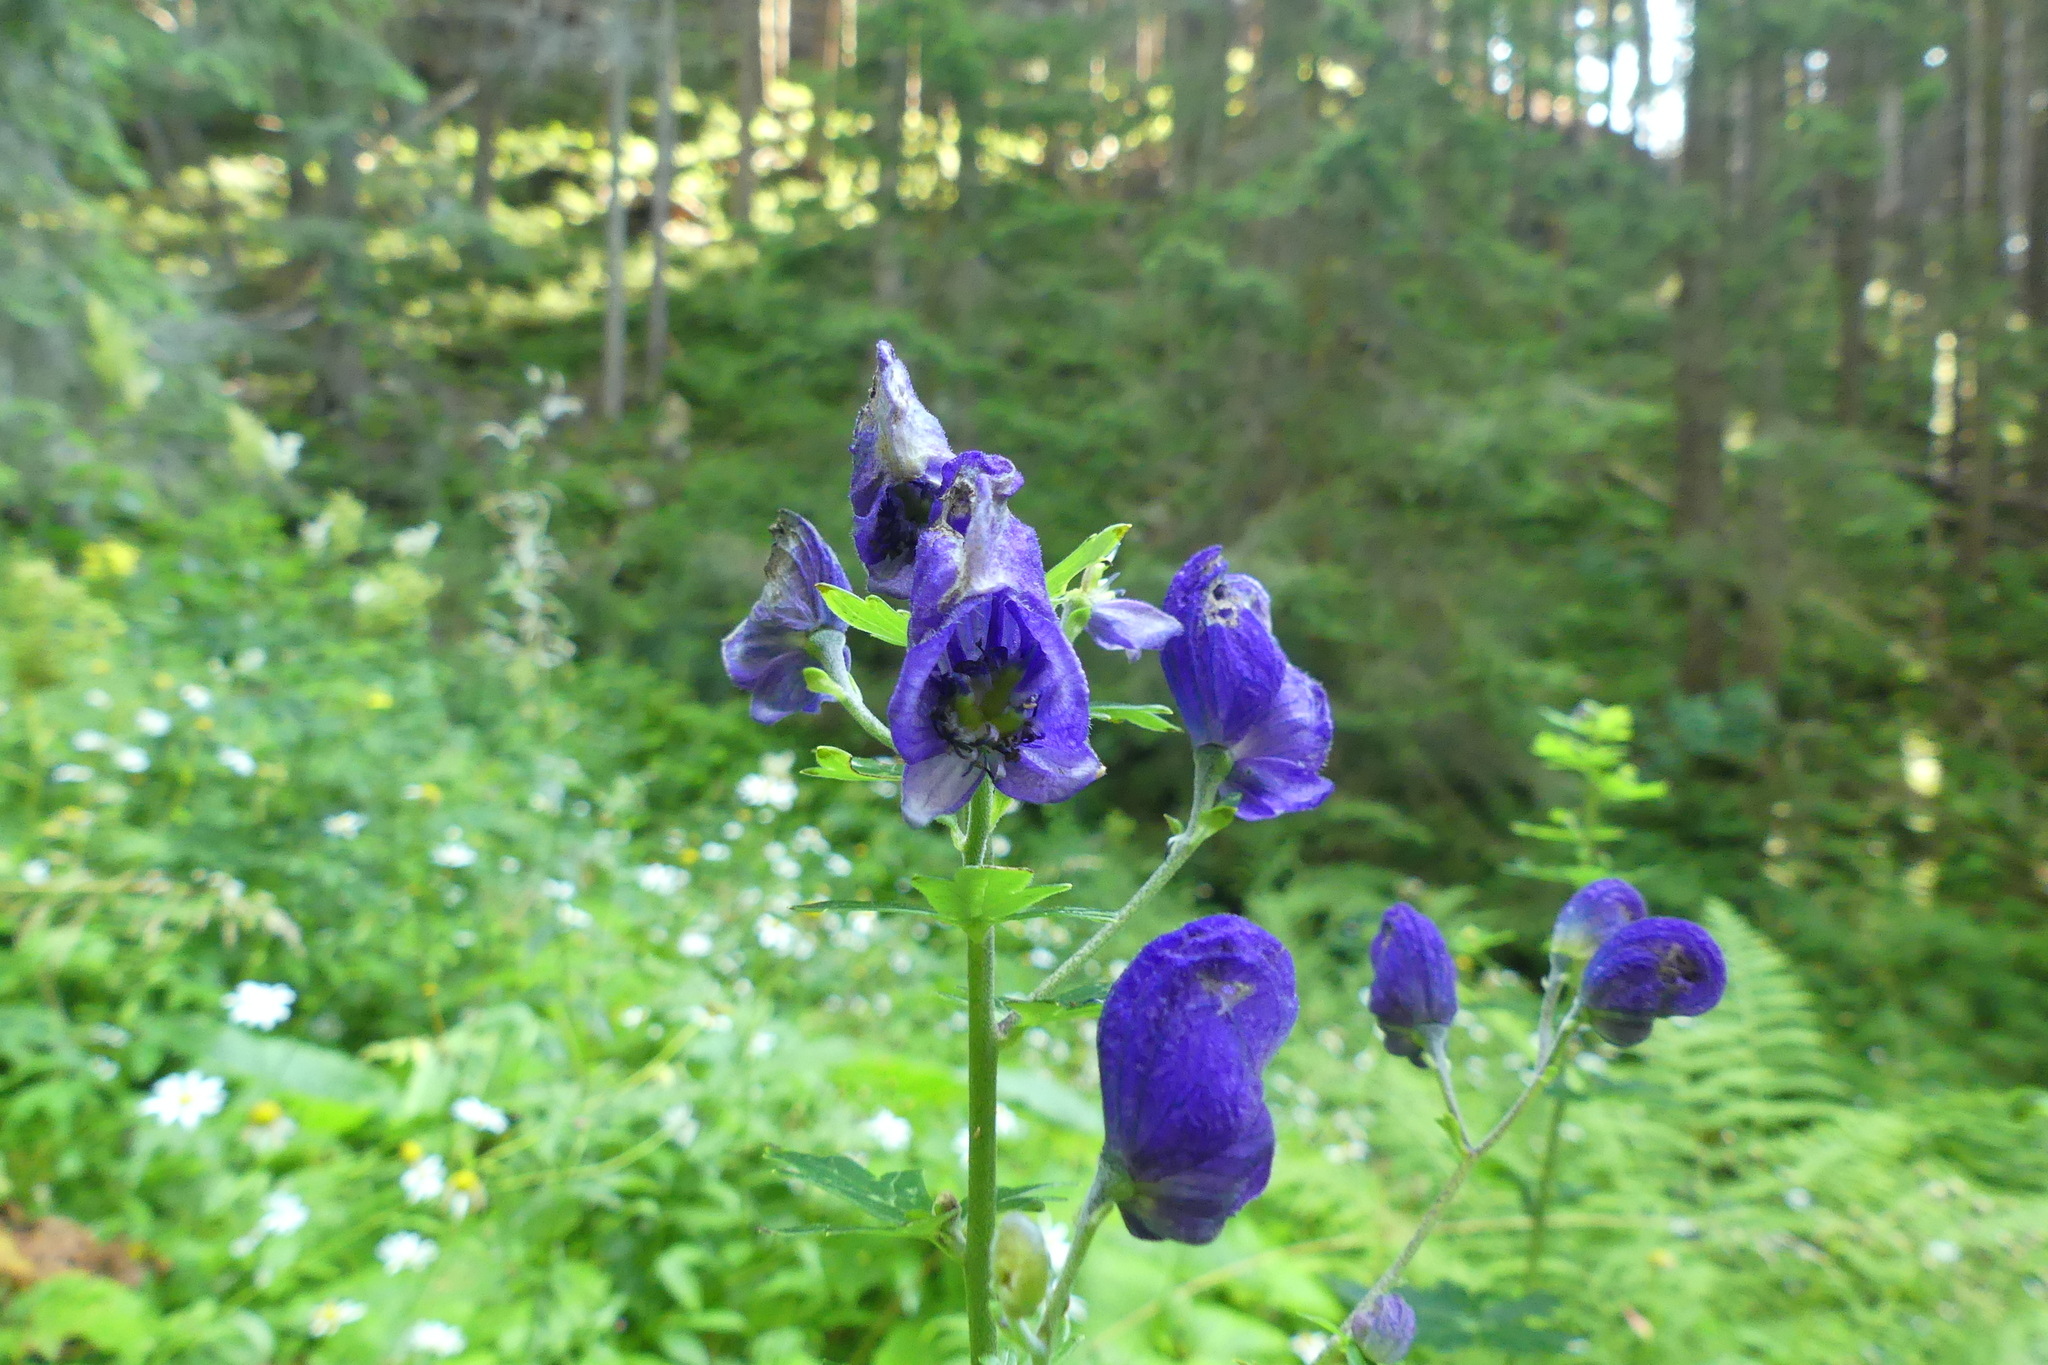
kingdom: Plantae
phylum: Tracheophyta
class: Magnoliopsida
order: Ranunculales
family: Ranunculaceae
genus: Aconitum
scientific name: Aconitum firmum
